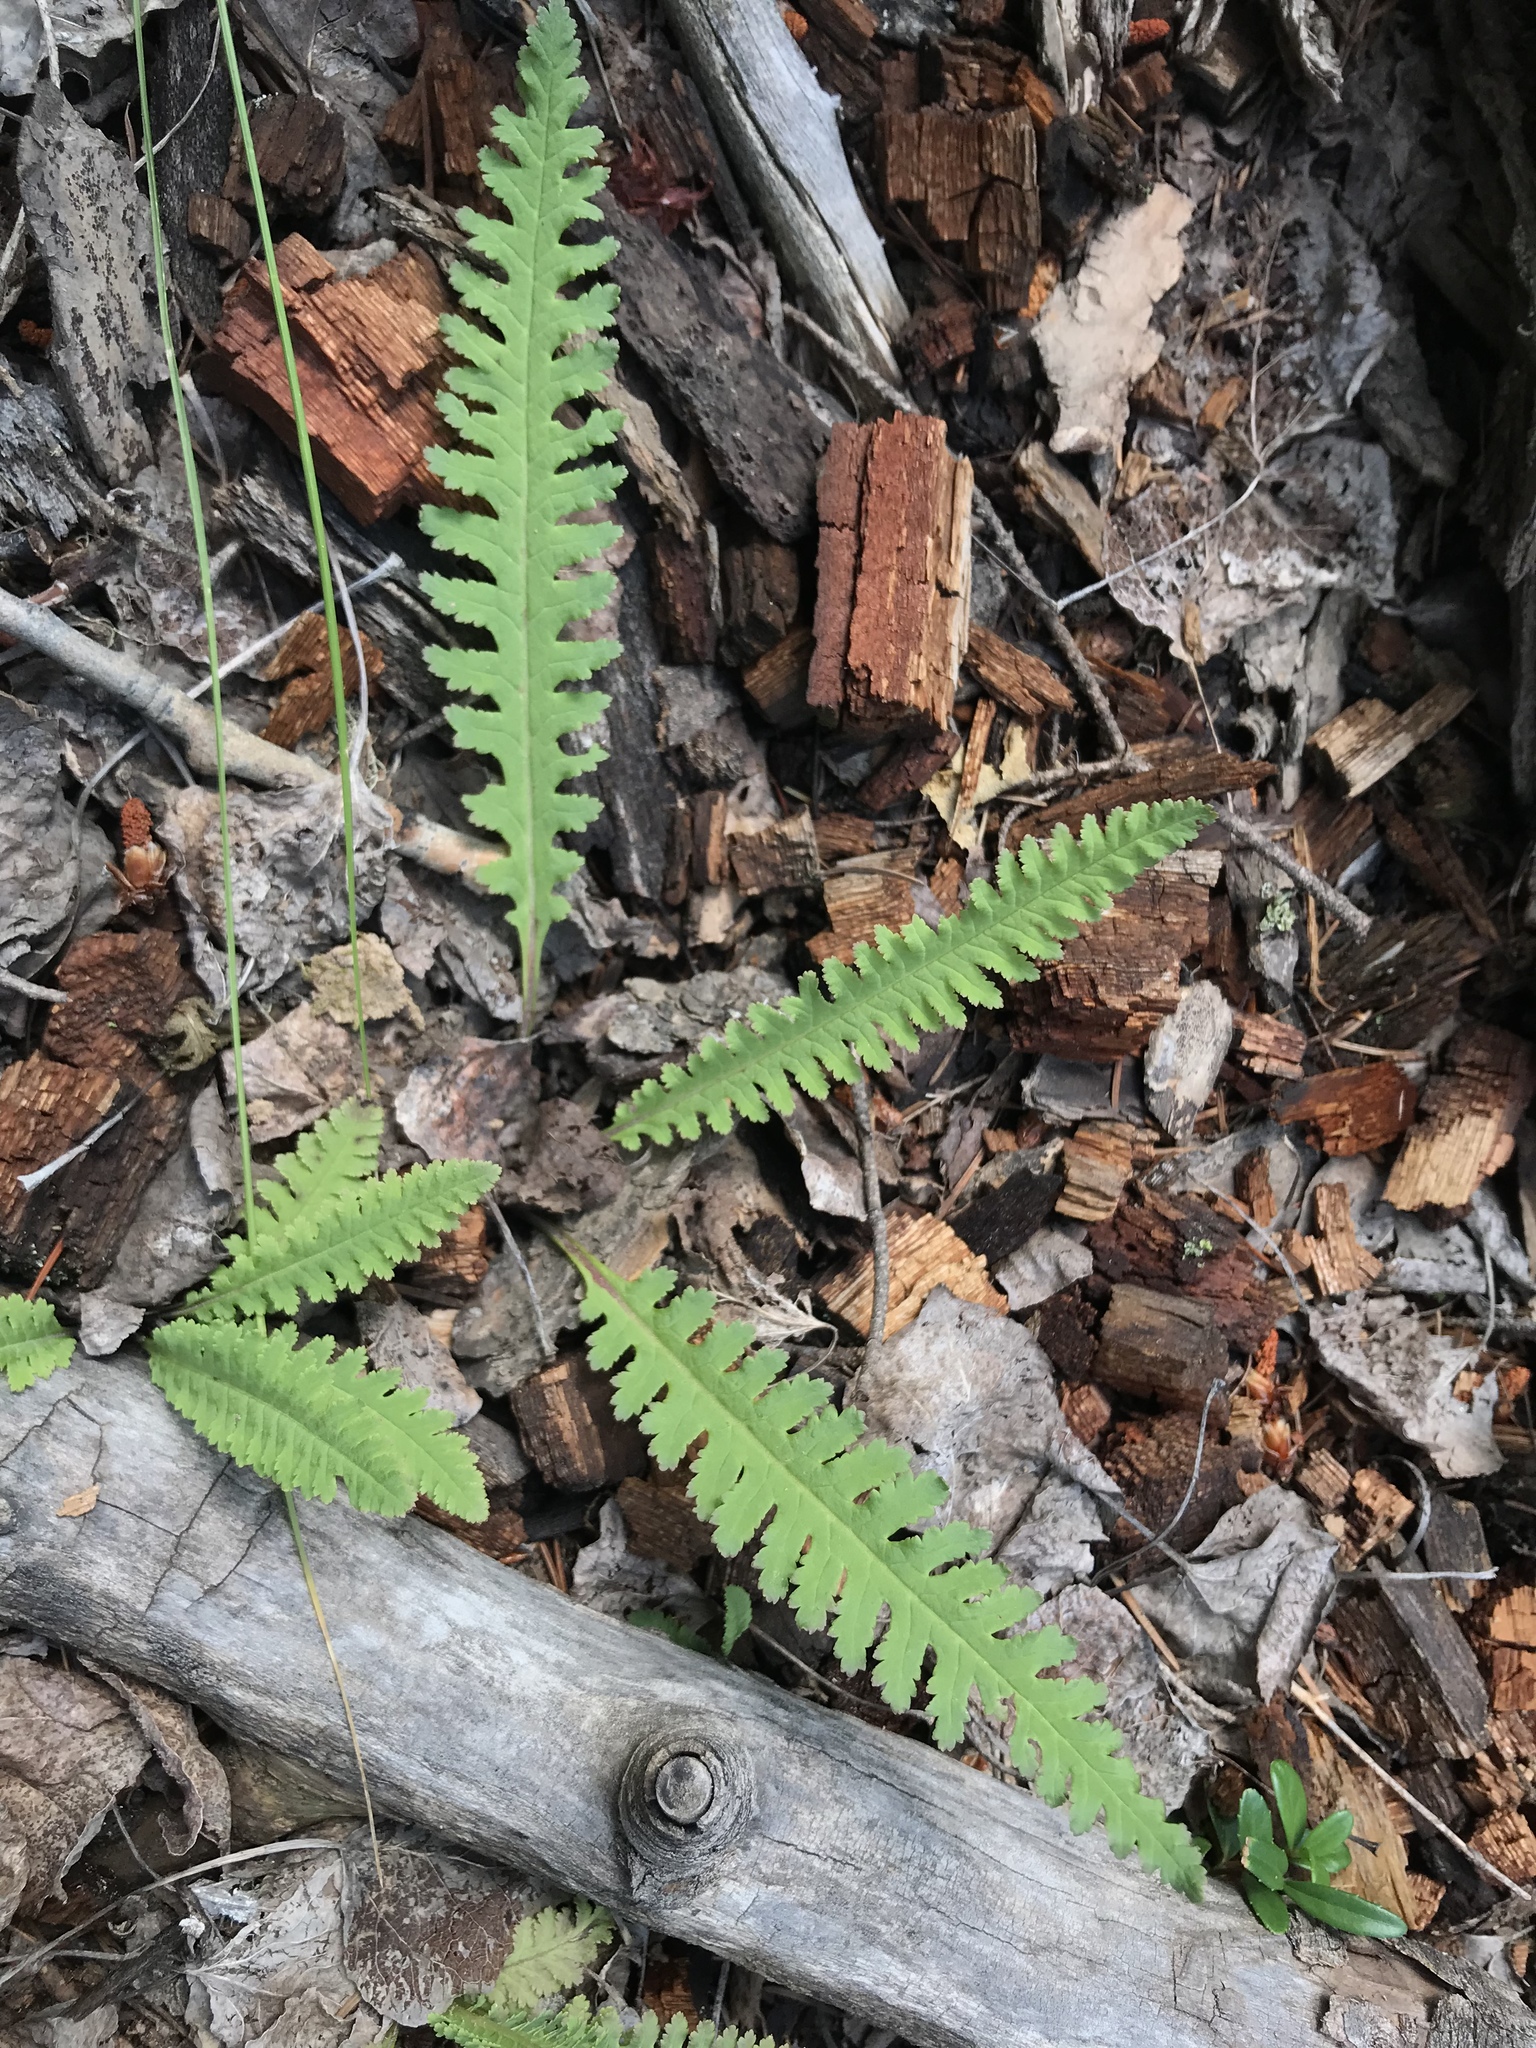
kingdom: Plantae
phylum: Tracheophyta
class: Magnoliopsida
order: Lamiales
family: Orobanchaceae
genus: Pedicularis
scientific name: Pedicularis centranthera
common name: Dwarf lousewort
